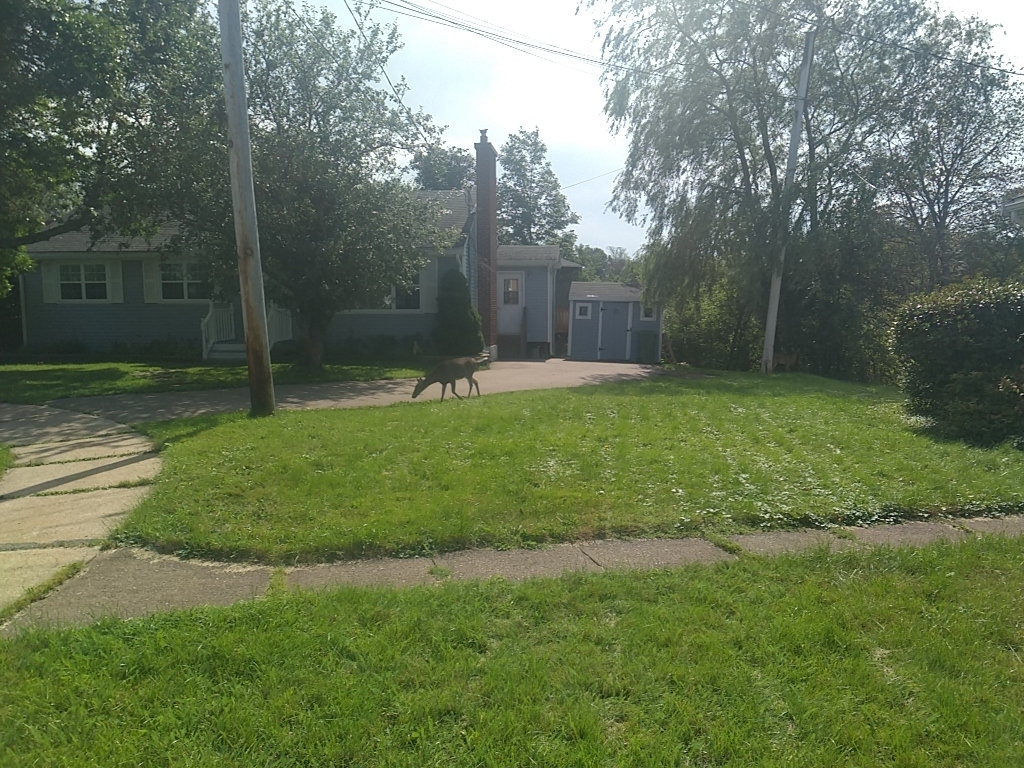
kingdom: Animalia
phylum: Chordata
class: Mammalia
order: Artiodactyla
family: Cervidae
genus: Odocoileus
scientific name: Odocoileus virginianus
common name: White-tailed deer
